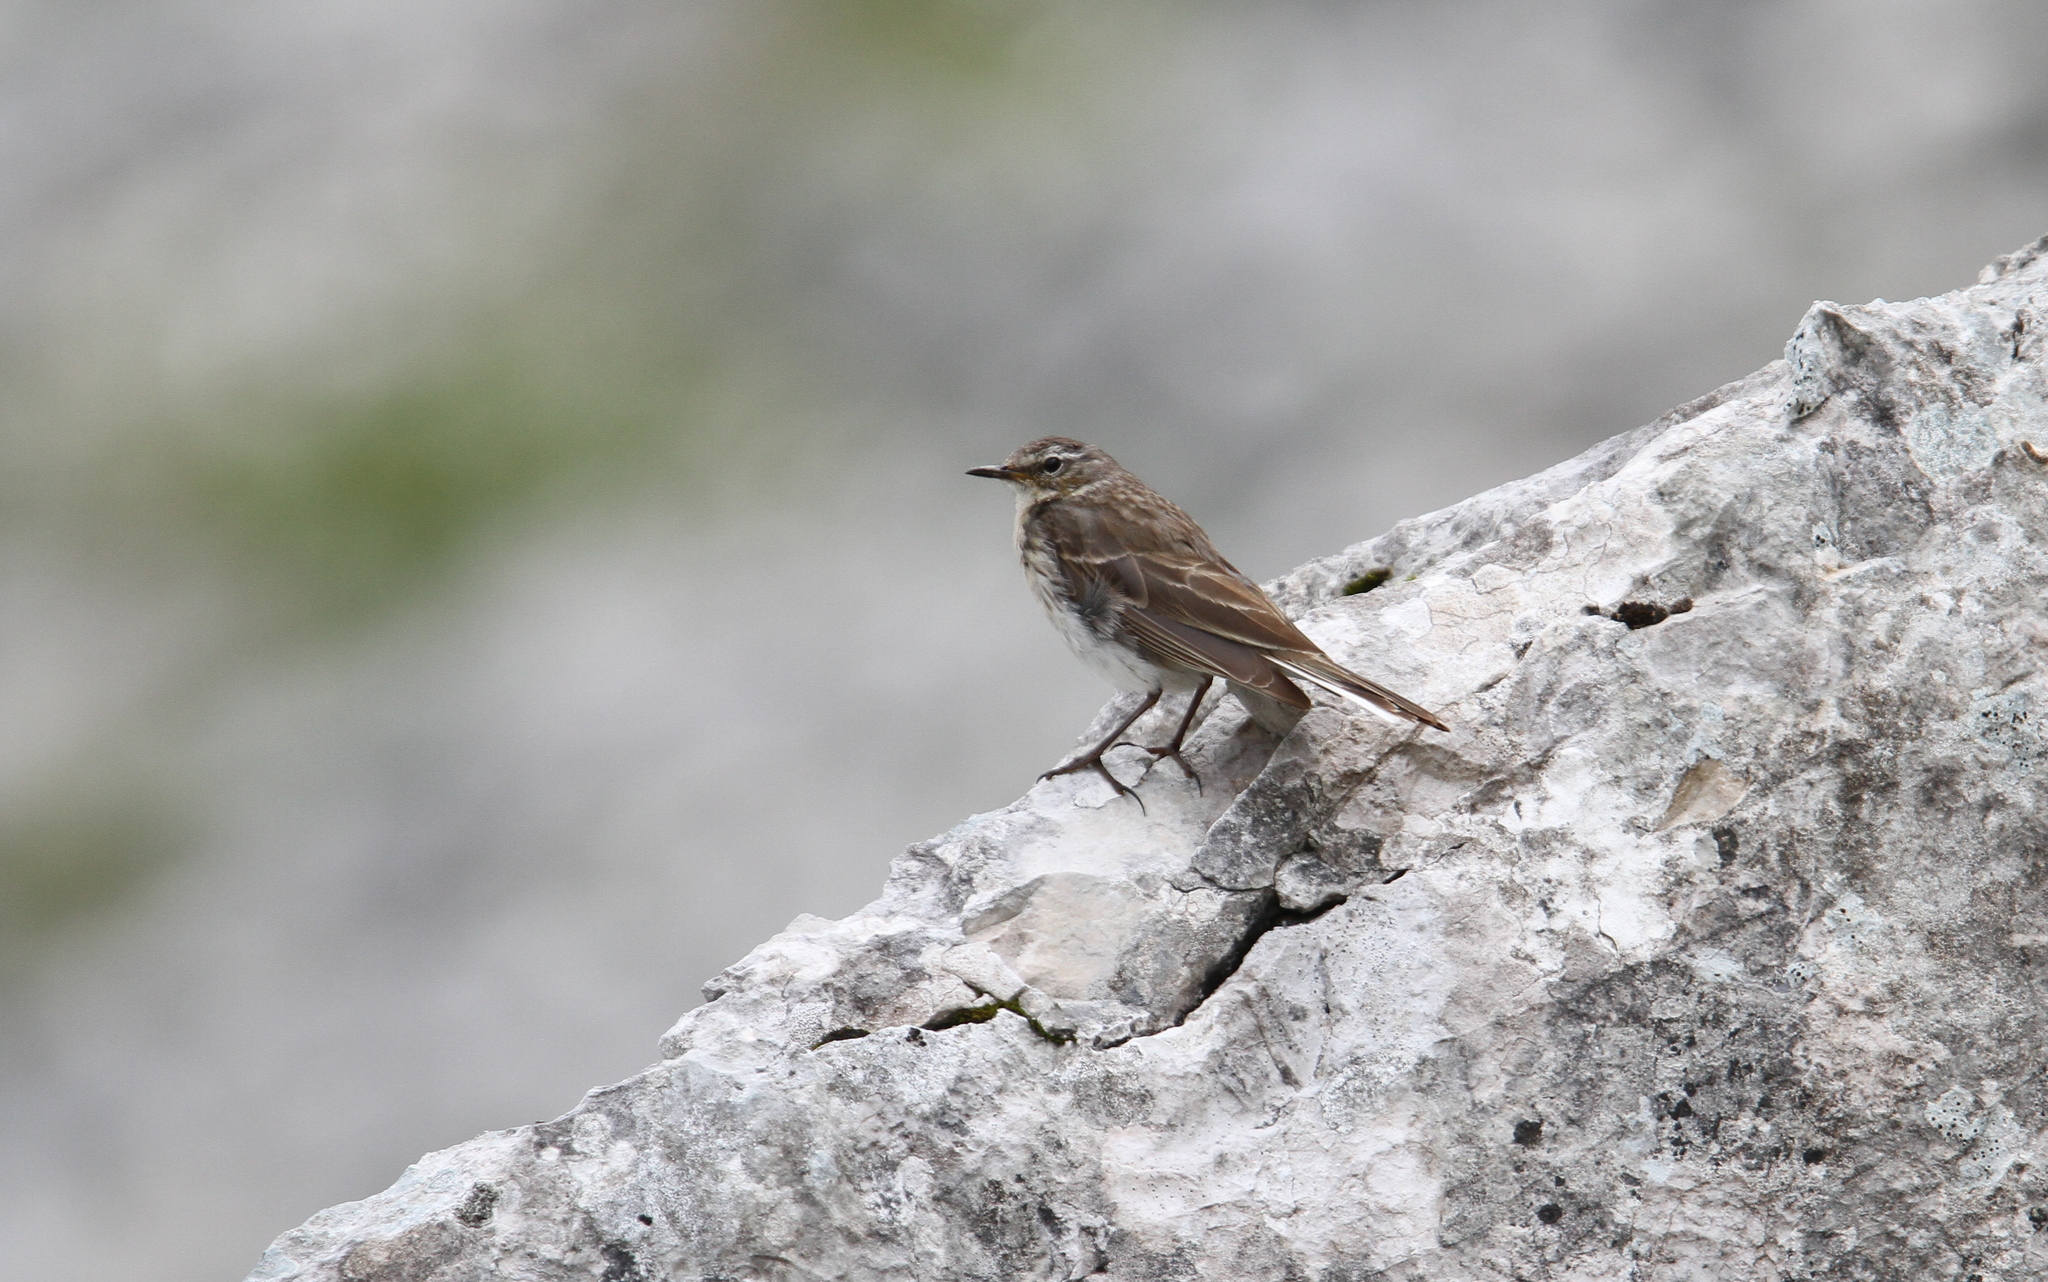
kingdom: Animalia
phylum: Chordata
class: Aves
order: Passeriformes
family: Motacillidae
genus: Anthus
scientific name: Anthus spinoletta
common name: Water pipit
